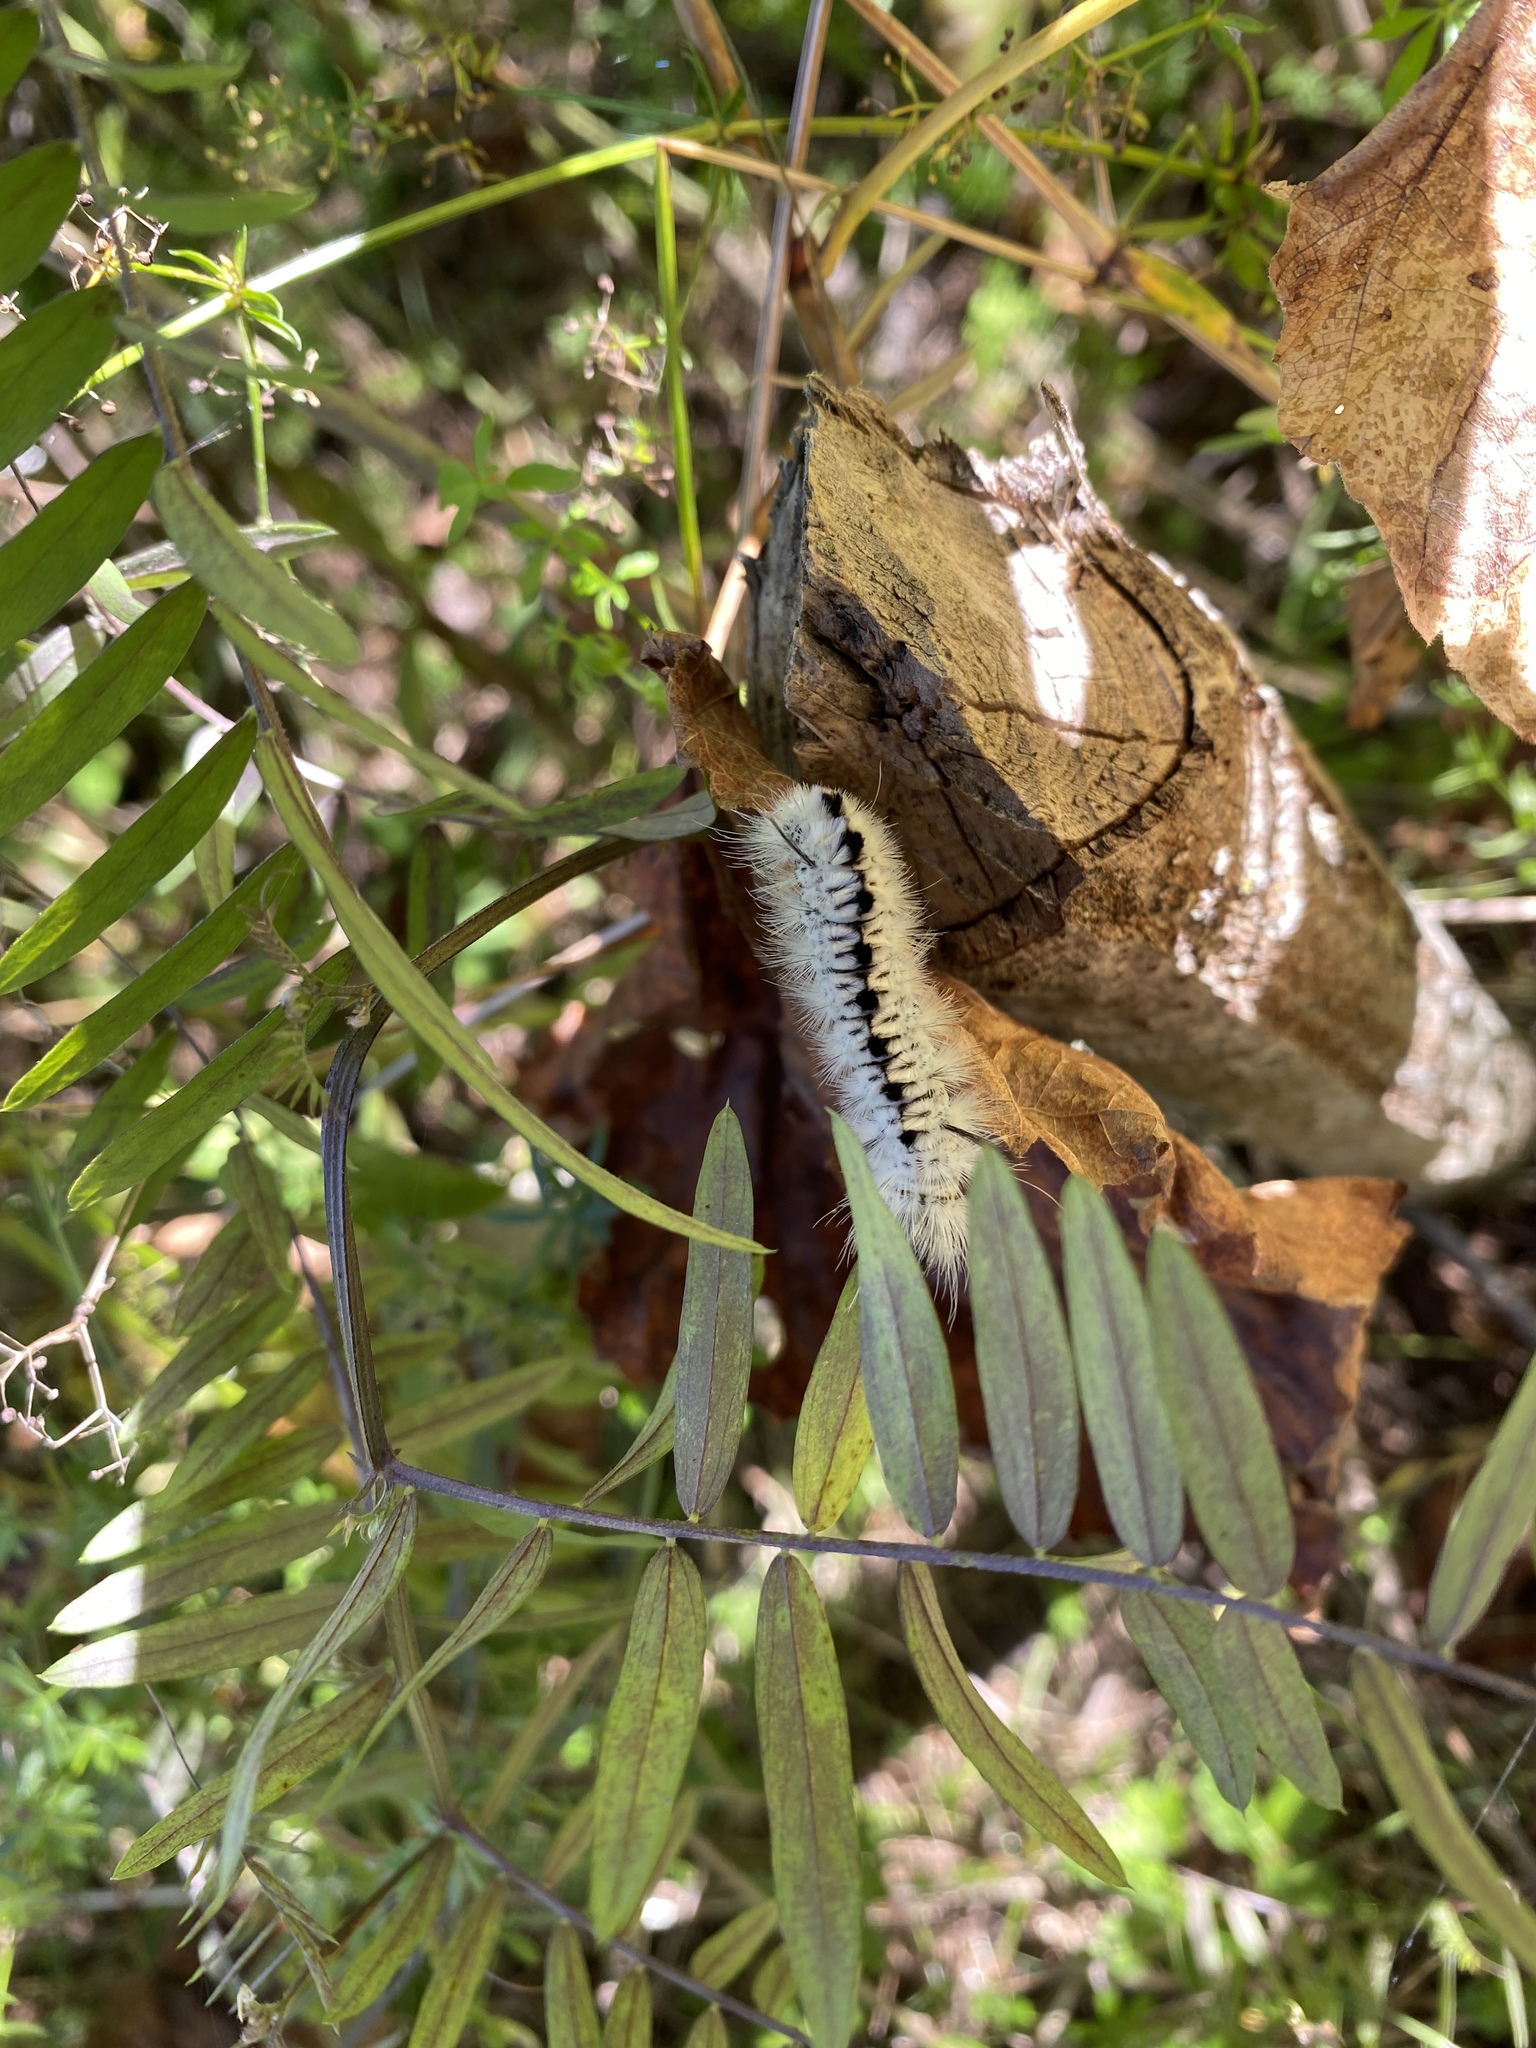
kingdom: Animalia
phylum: Arthropoda
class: Insecta
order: Lepidoptera
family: Erebidae
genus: Lophocampa
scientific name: Lophocampa caryae
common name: Hickory tussock moth
